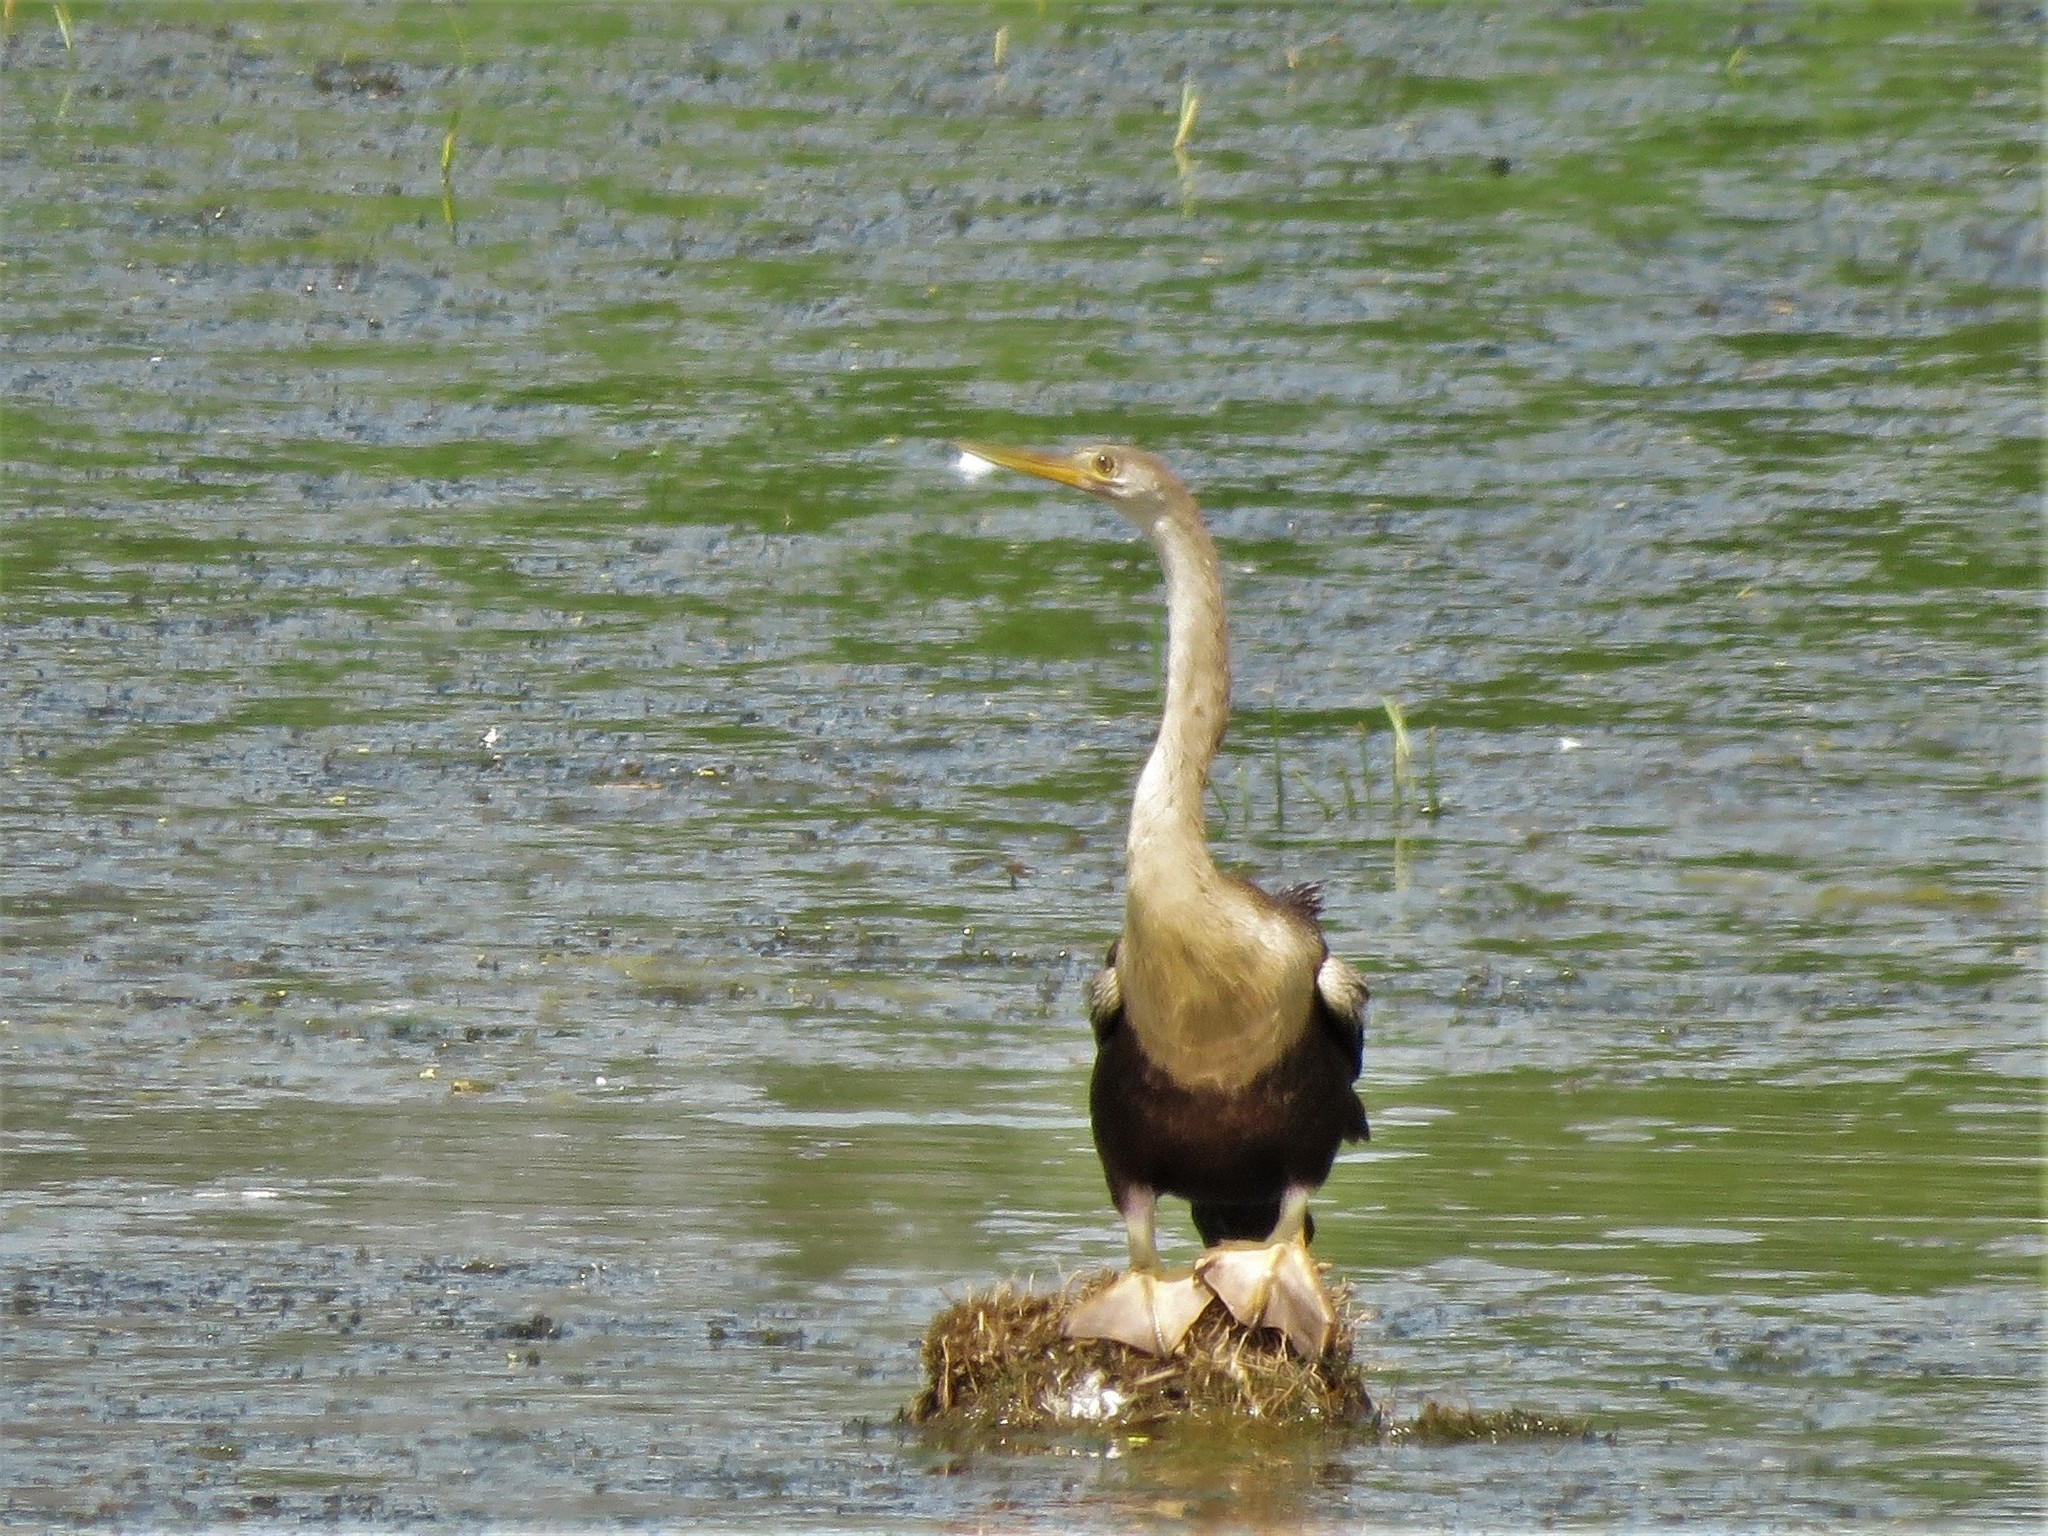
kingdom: Animalia
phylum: Chordata
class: Aves
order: Suliformes
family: Anhingidae
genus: Anhinga
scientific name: Anhinga anhinga
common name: Anhinga
